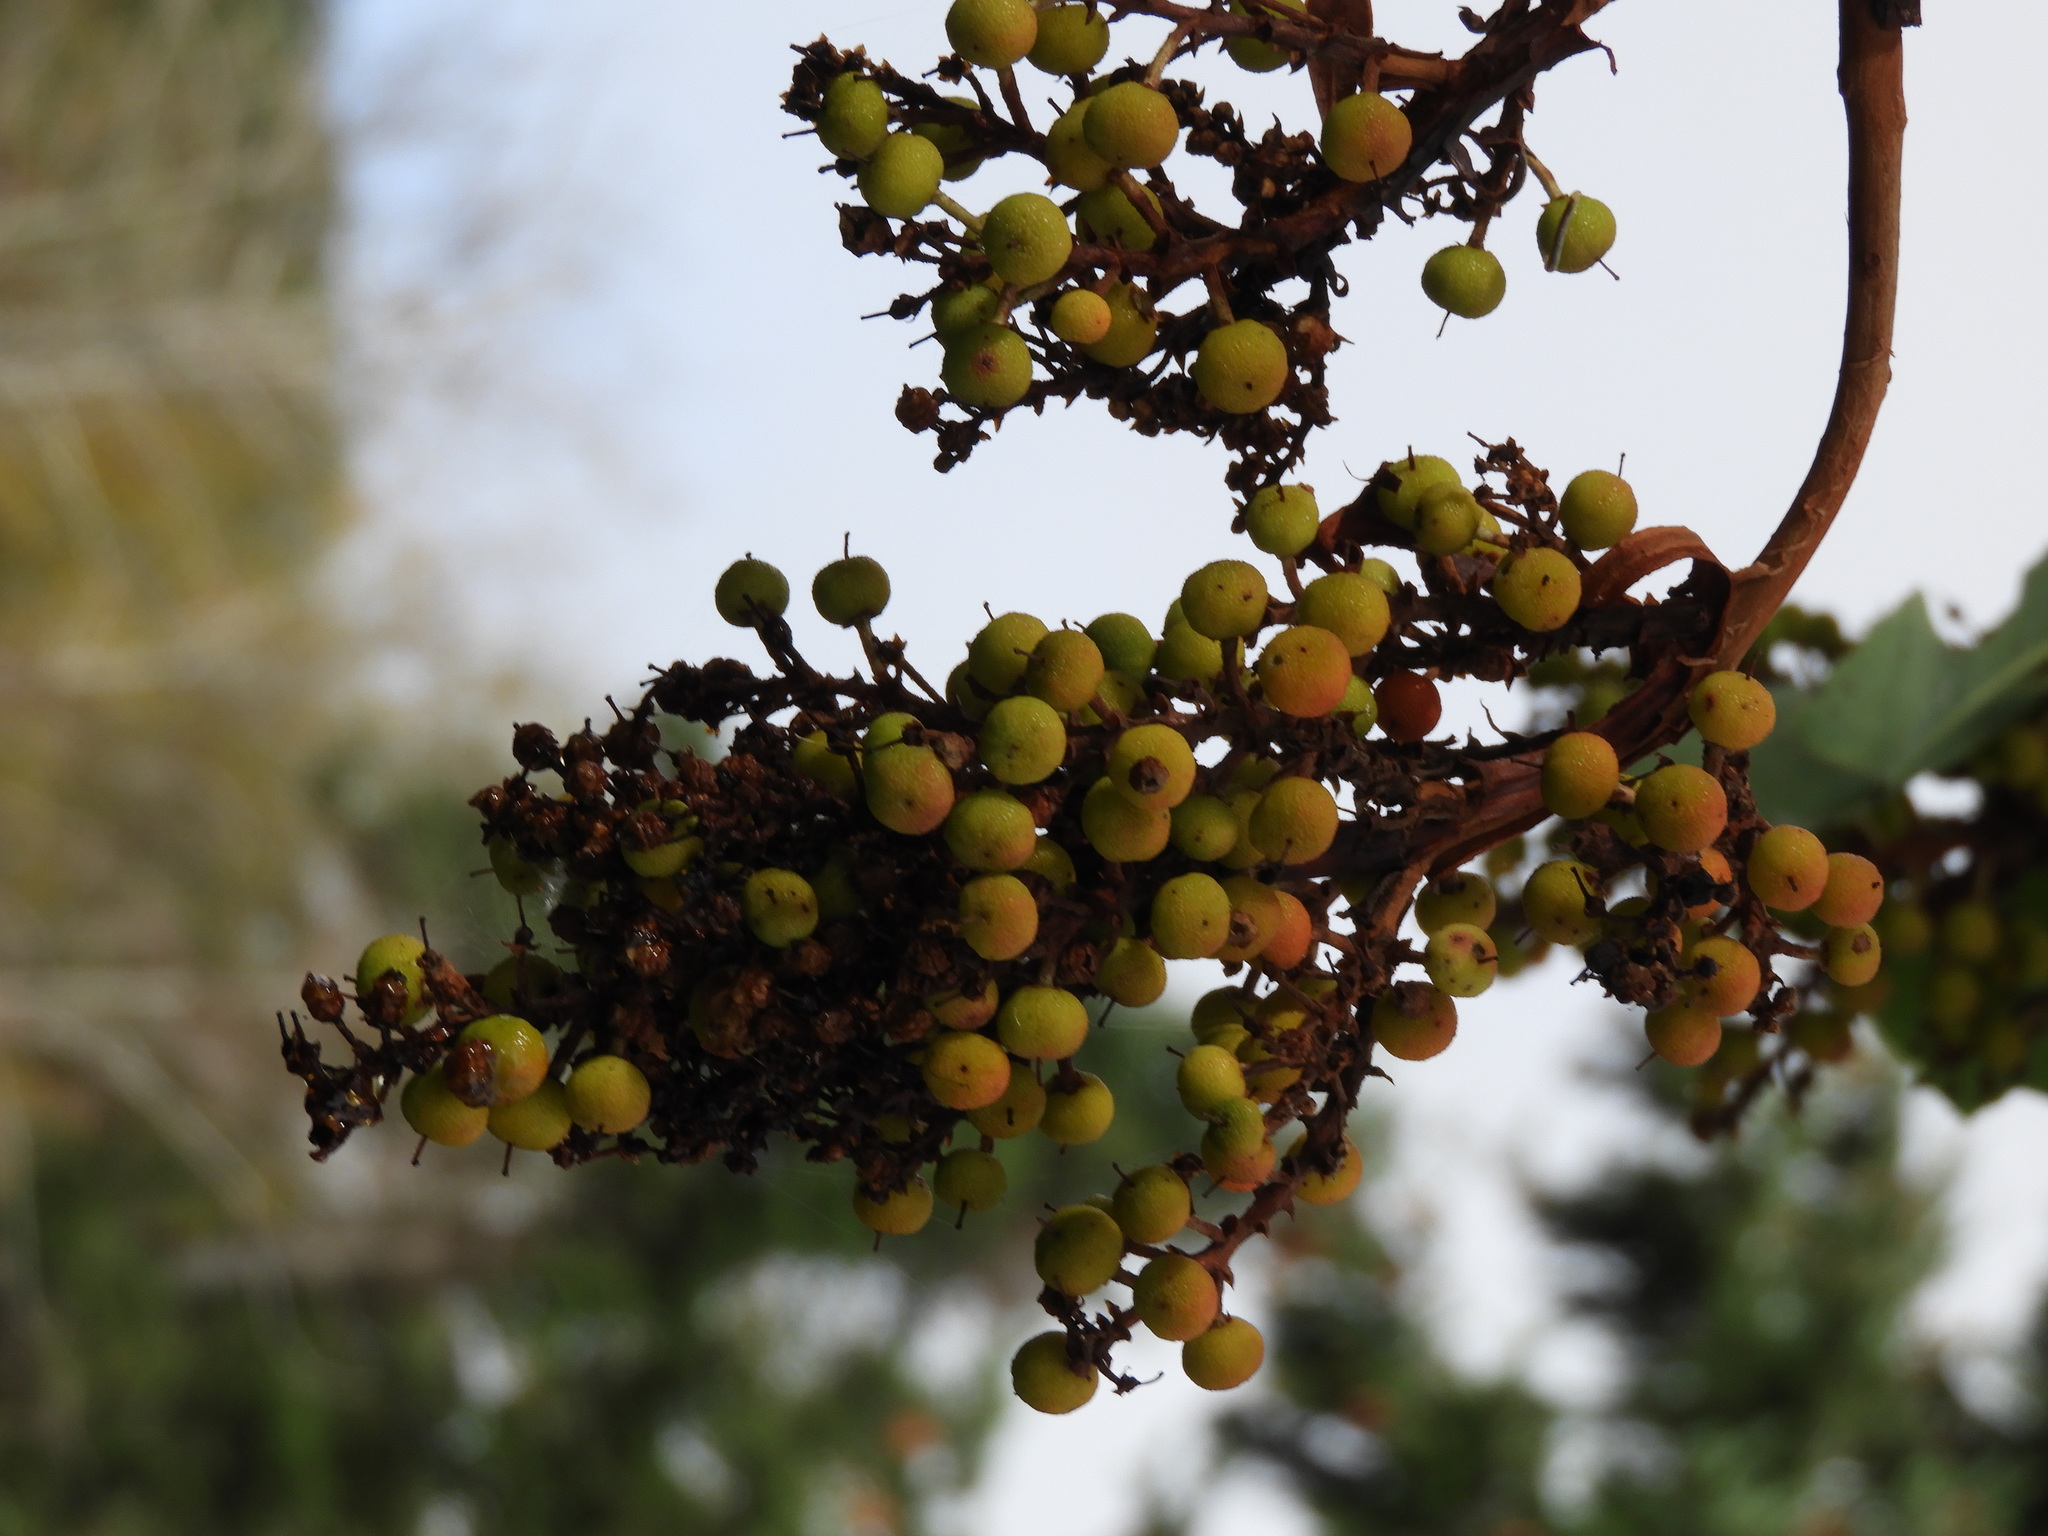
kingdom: Plantae
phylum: Tracheophyta
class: Magnoliopsida
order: Ericales
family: Ericaceae
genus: Arbutus
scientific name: Arbutus menziesii
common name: Pacific madrone
